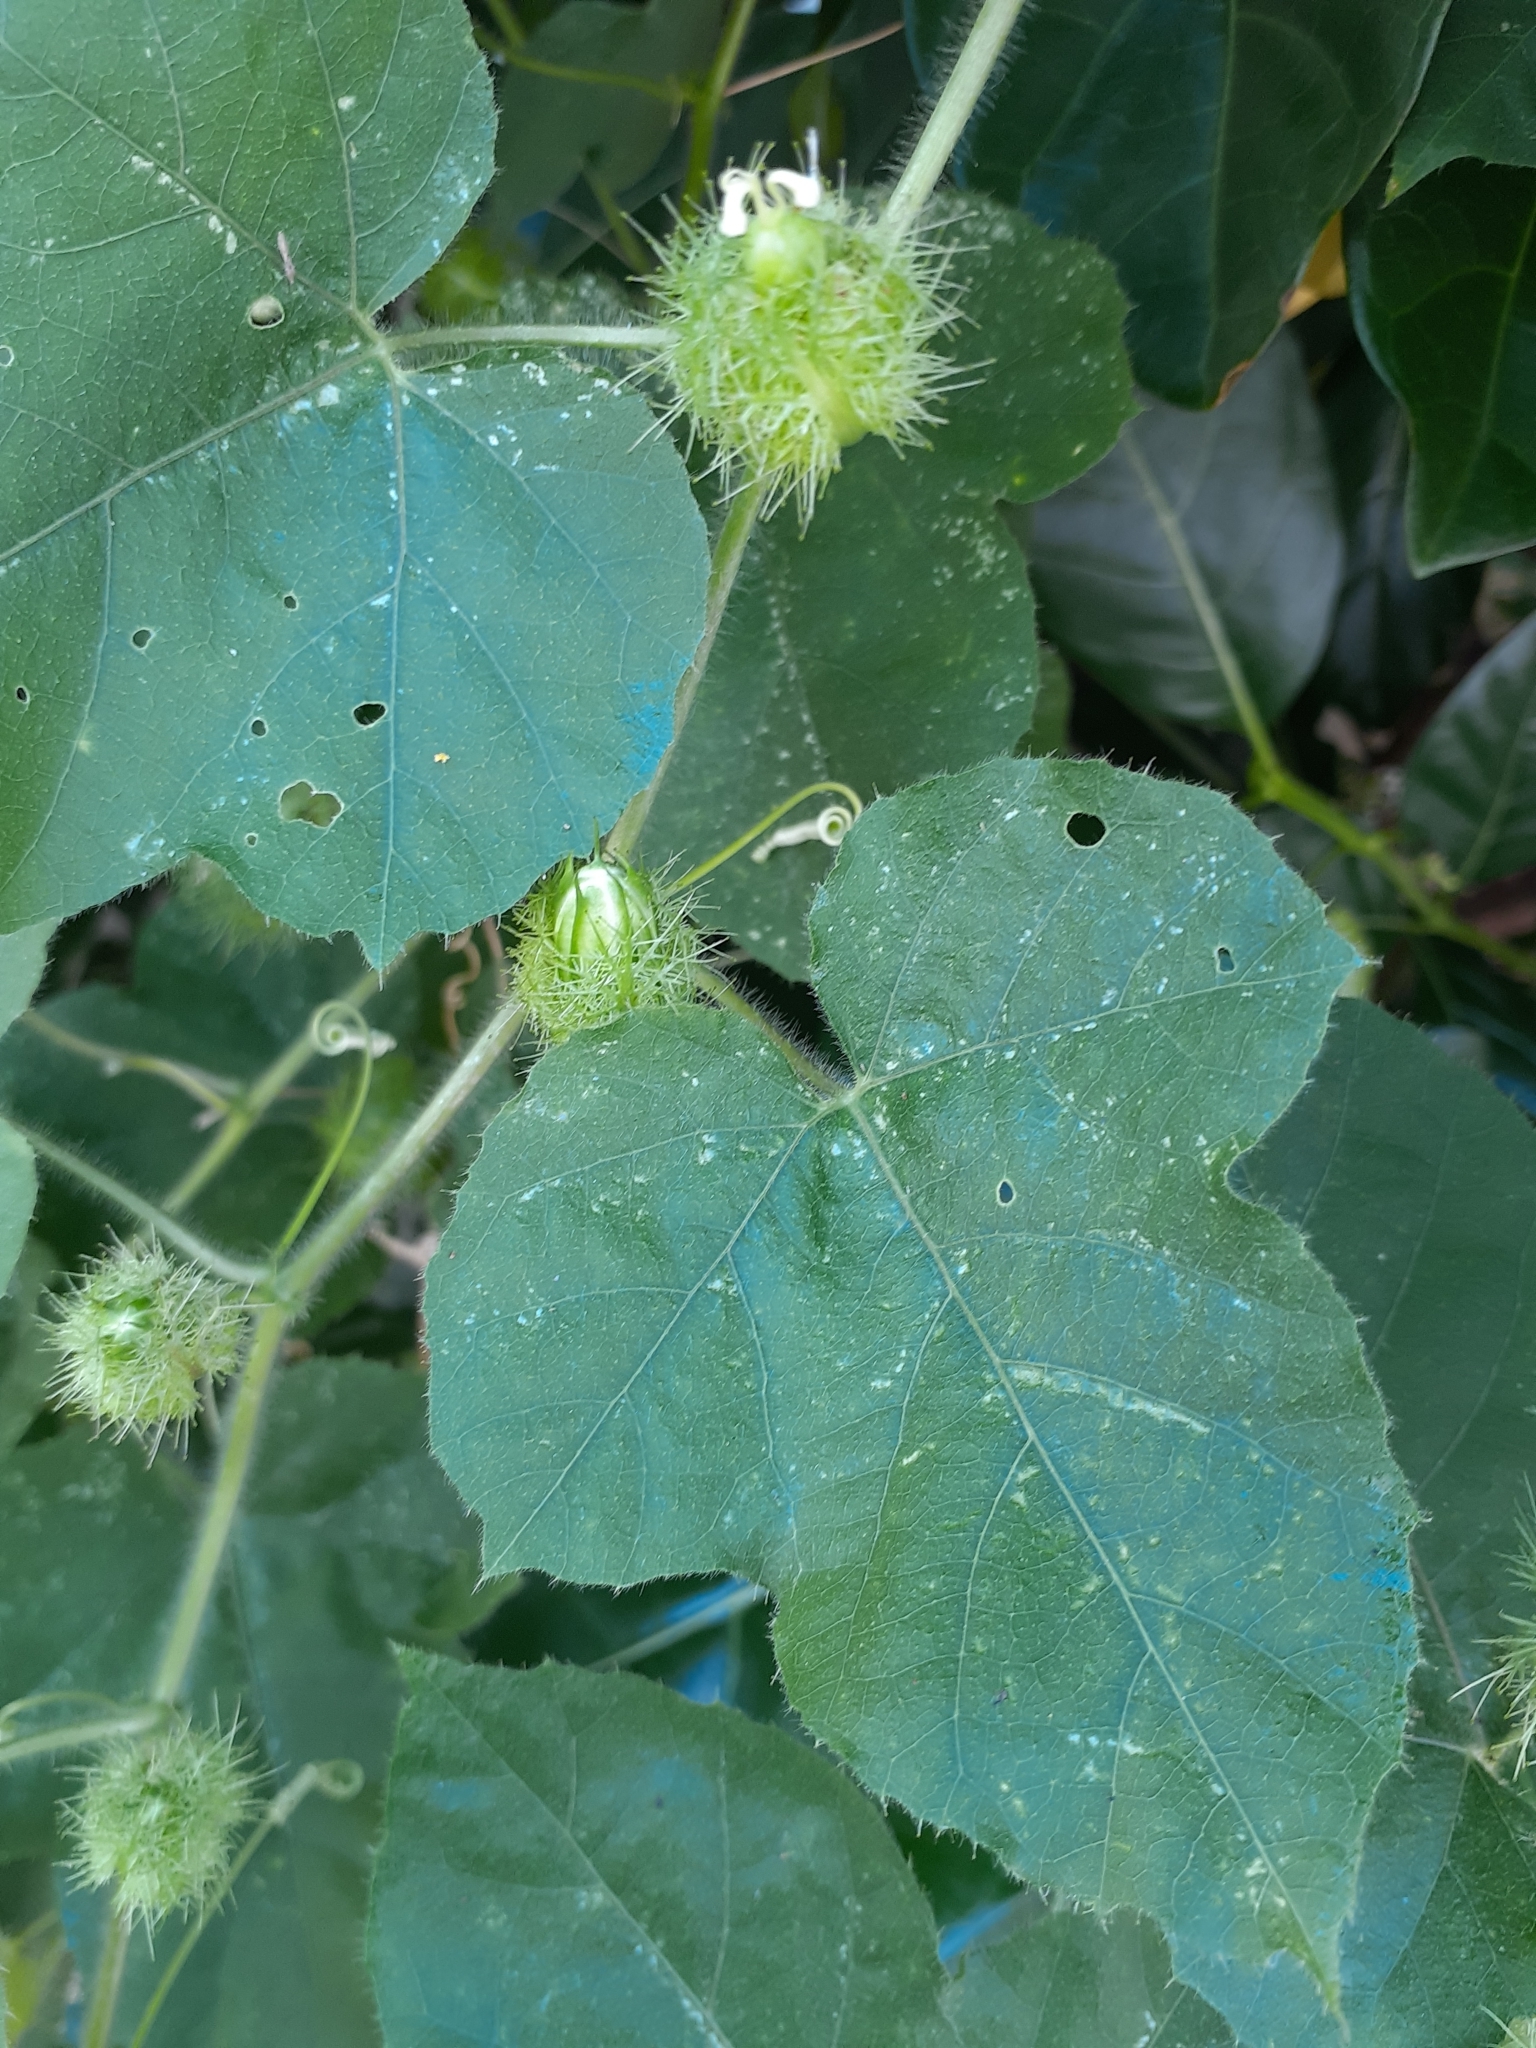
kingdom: Plantae
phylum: Tracheophyta
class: Magnoliopsida
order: Malpighiales
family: Passifloraceae
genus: Passiflora
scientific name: Passiflora vesicaria
